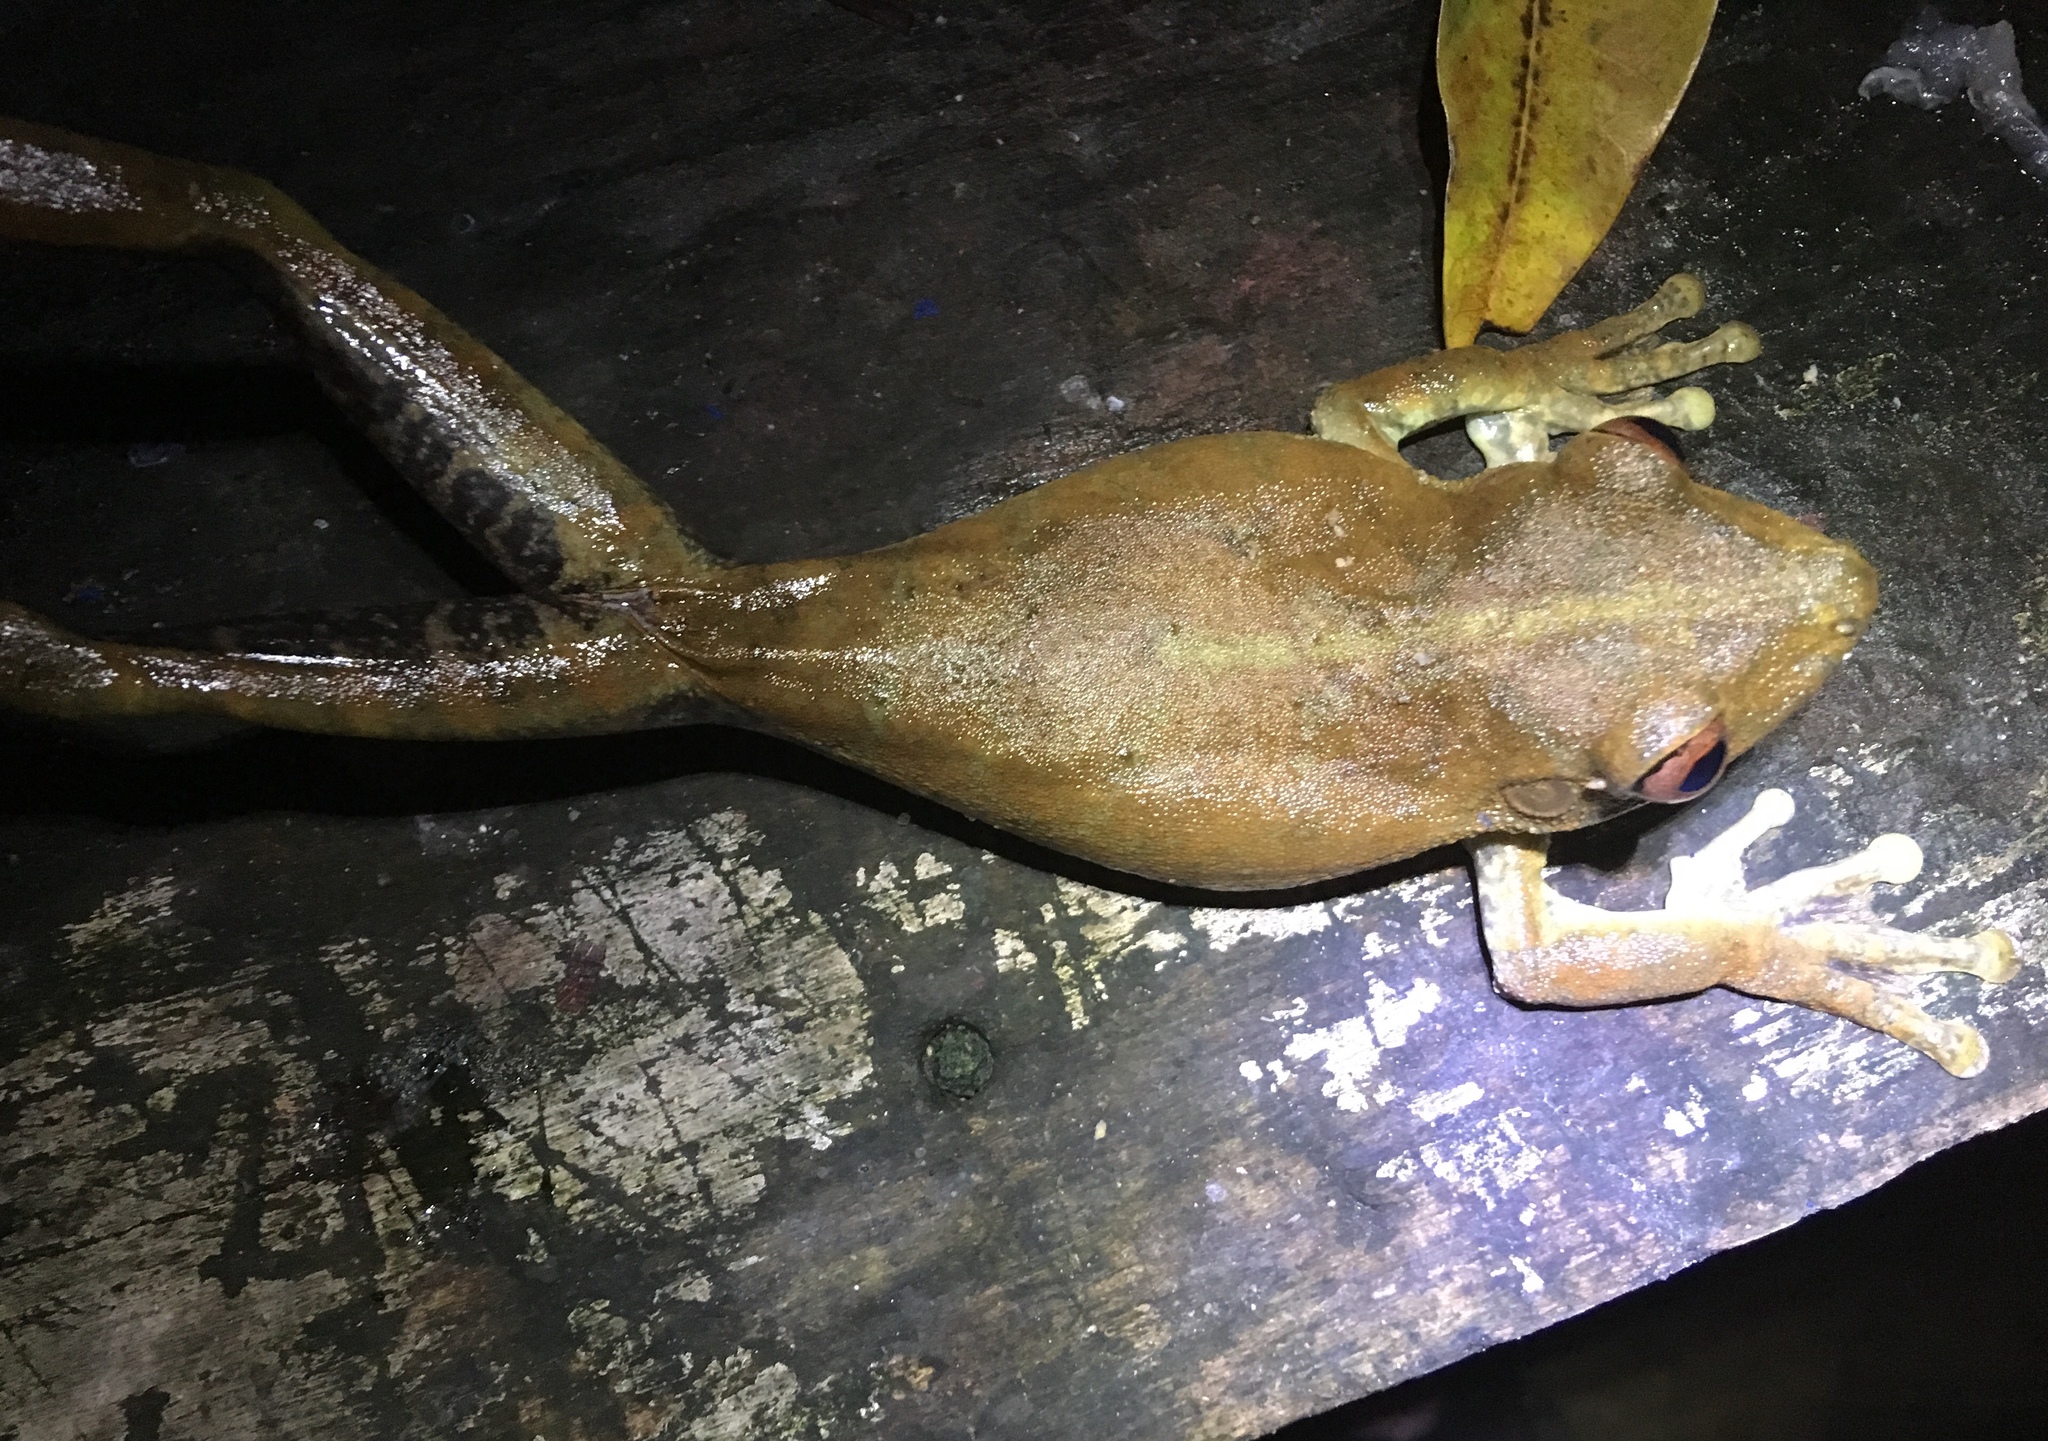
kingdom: Animalia
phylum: Chordata
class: Amphibia
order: Anura
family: Hylidae
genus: Boana
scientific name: Boana wavrini
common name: Upper orinoco treefrog
